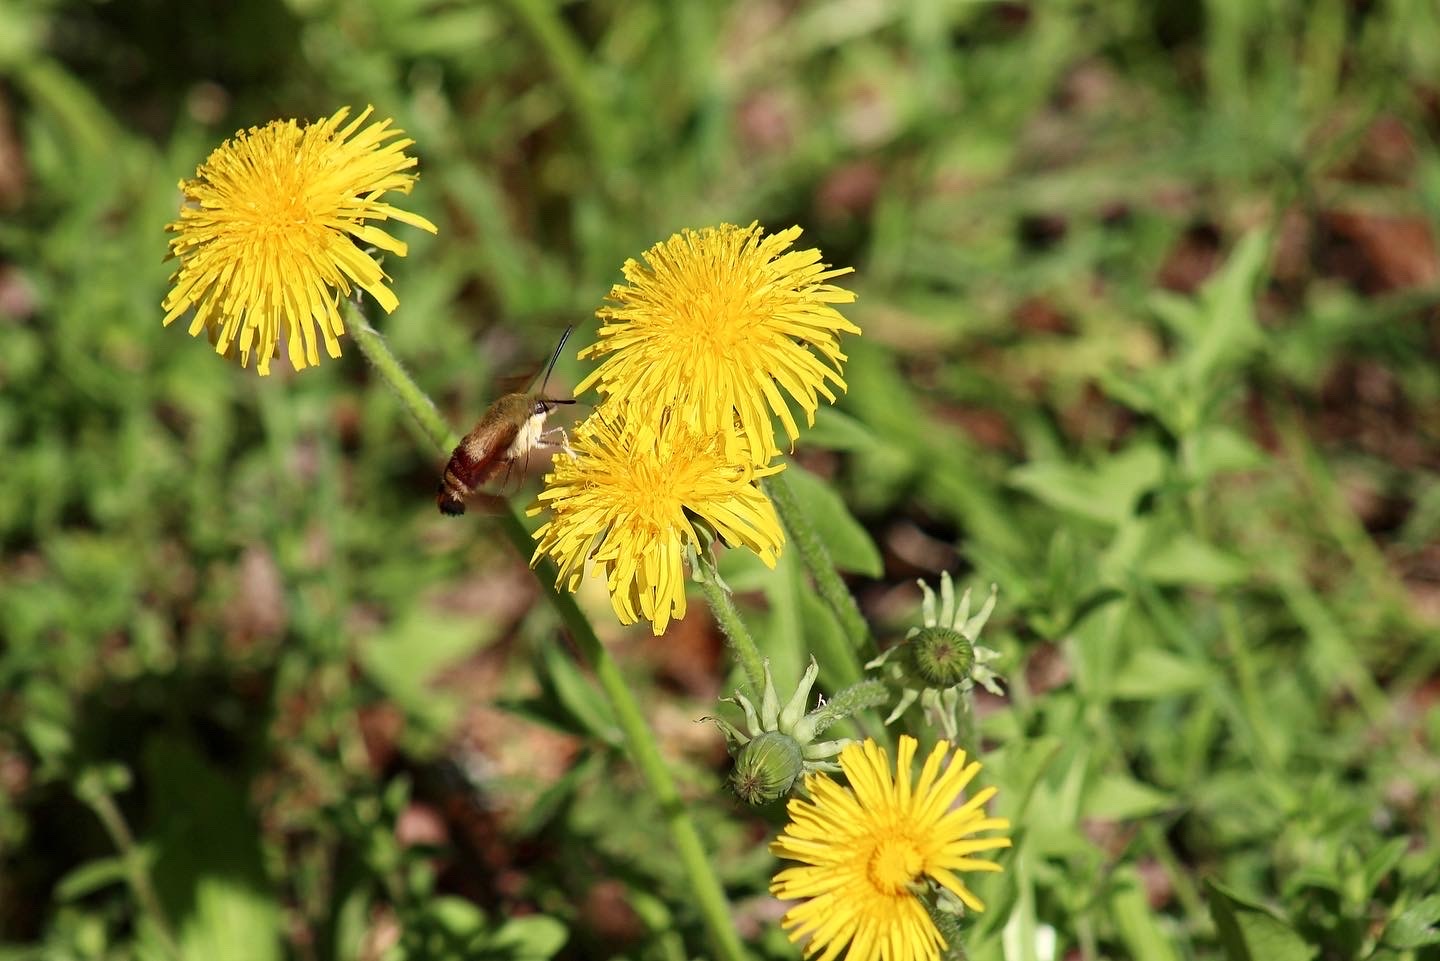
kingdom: Animalia
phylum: Arthropoda
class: Insecta
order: Lepidoptera
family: Sphingidae
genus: Hemaris
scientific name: Hemaris thysbe
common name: Common clear-wing
